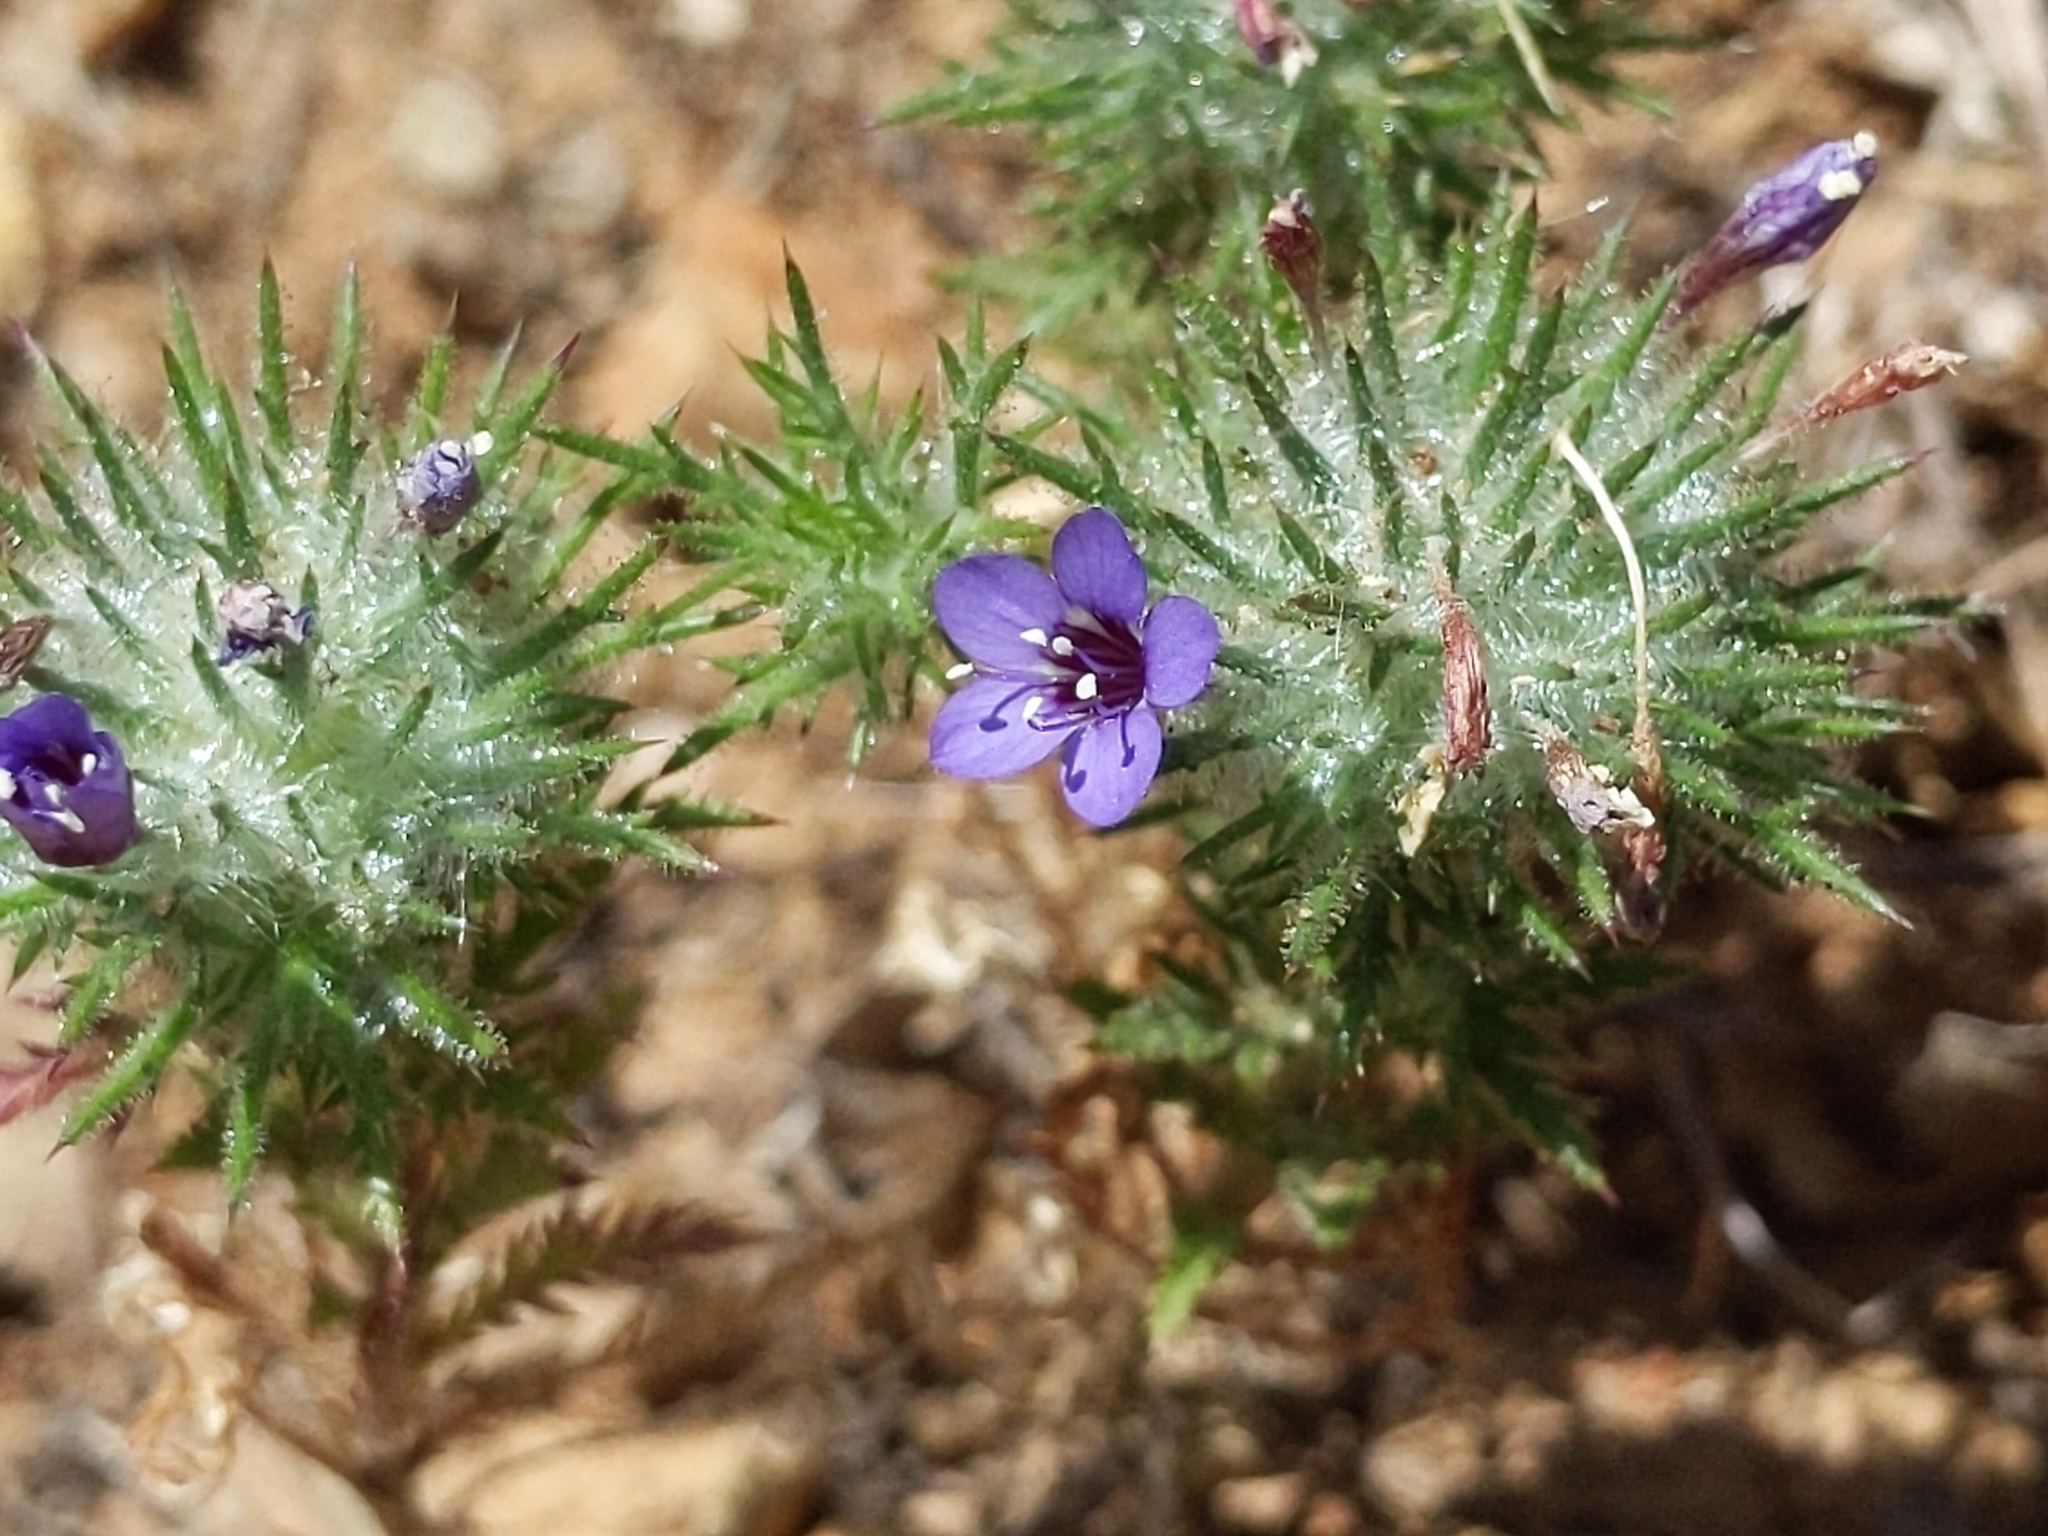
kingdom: Plantae
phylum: Tracheophyta
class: Magnoliopsida
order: Ericales
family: Polemoniaceae
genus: Navarretia
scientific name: Navarretia pubescens
